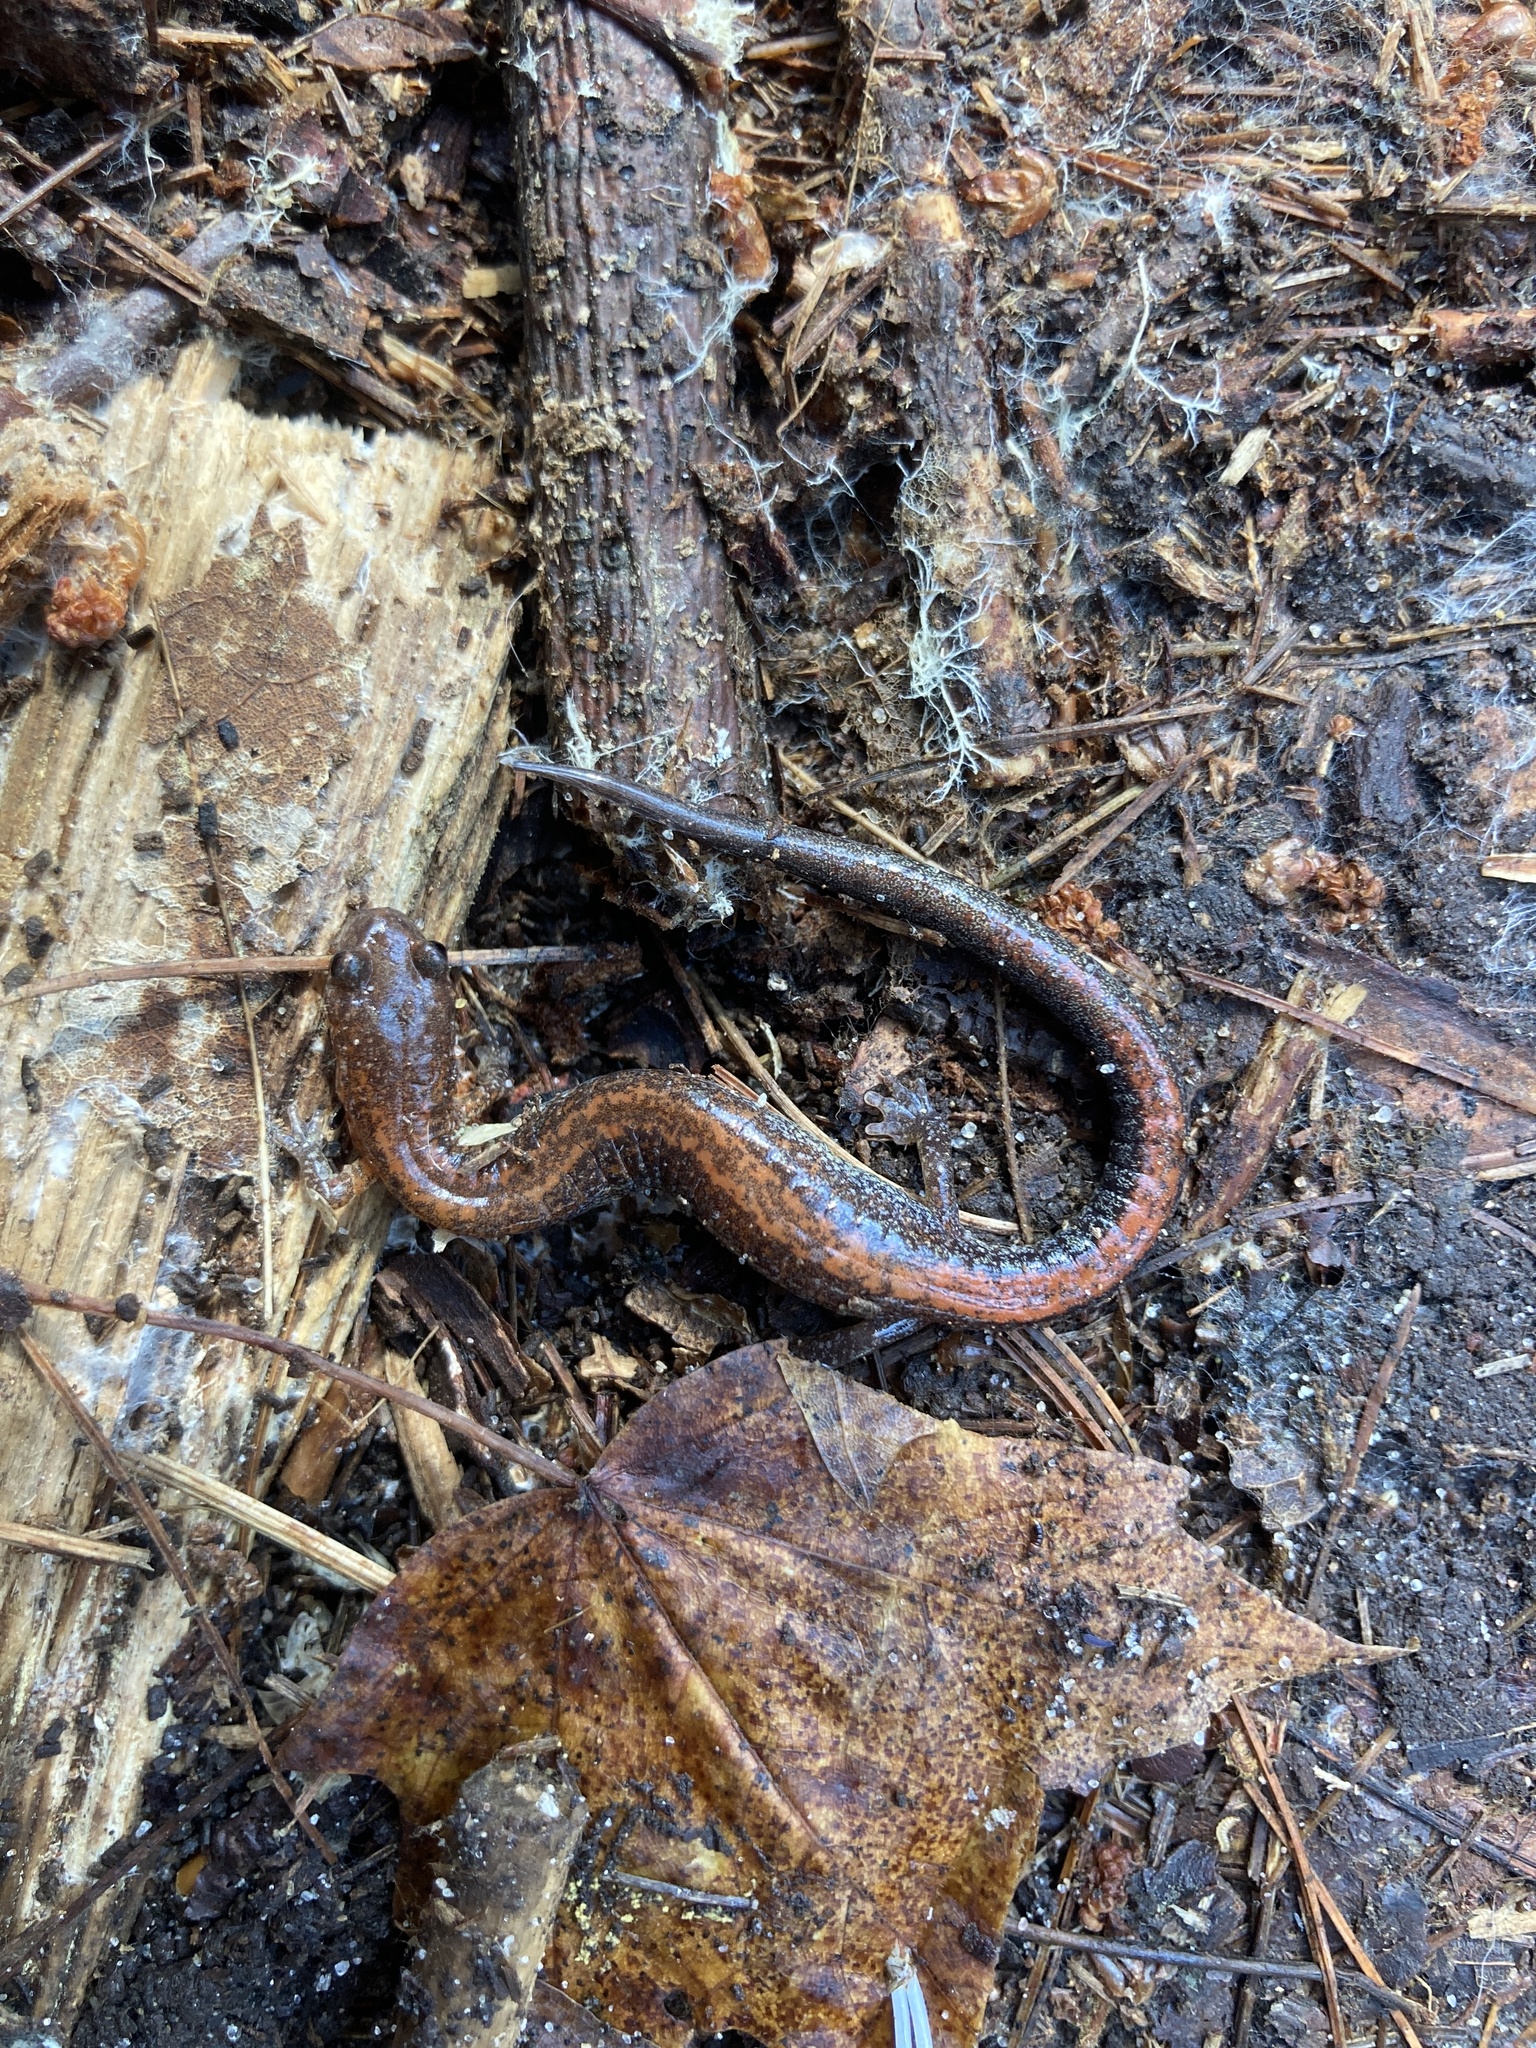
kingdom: Animalia
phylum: Chordata
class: Amphibia
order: Caudata
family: Plethodontidae
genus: Plethodon
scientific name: Plethodon cinereus
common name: Redback salamander
